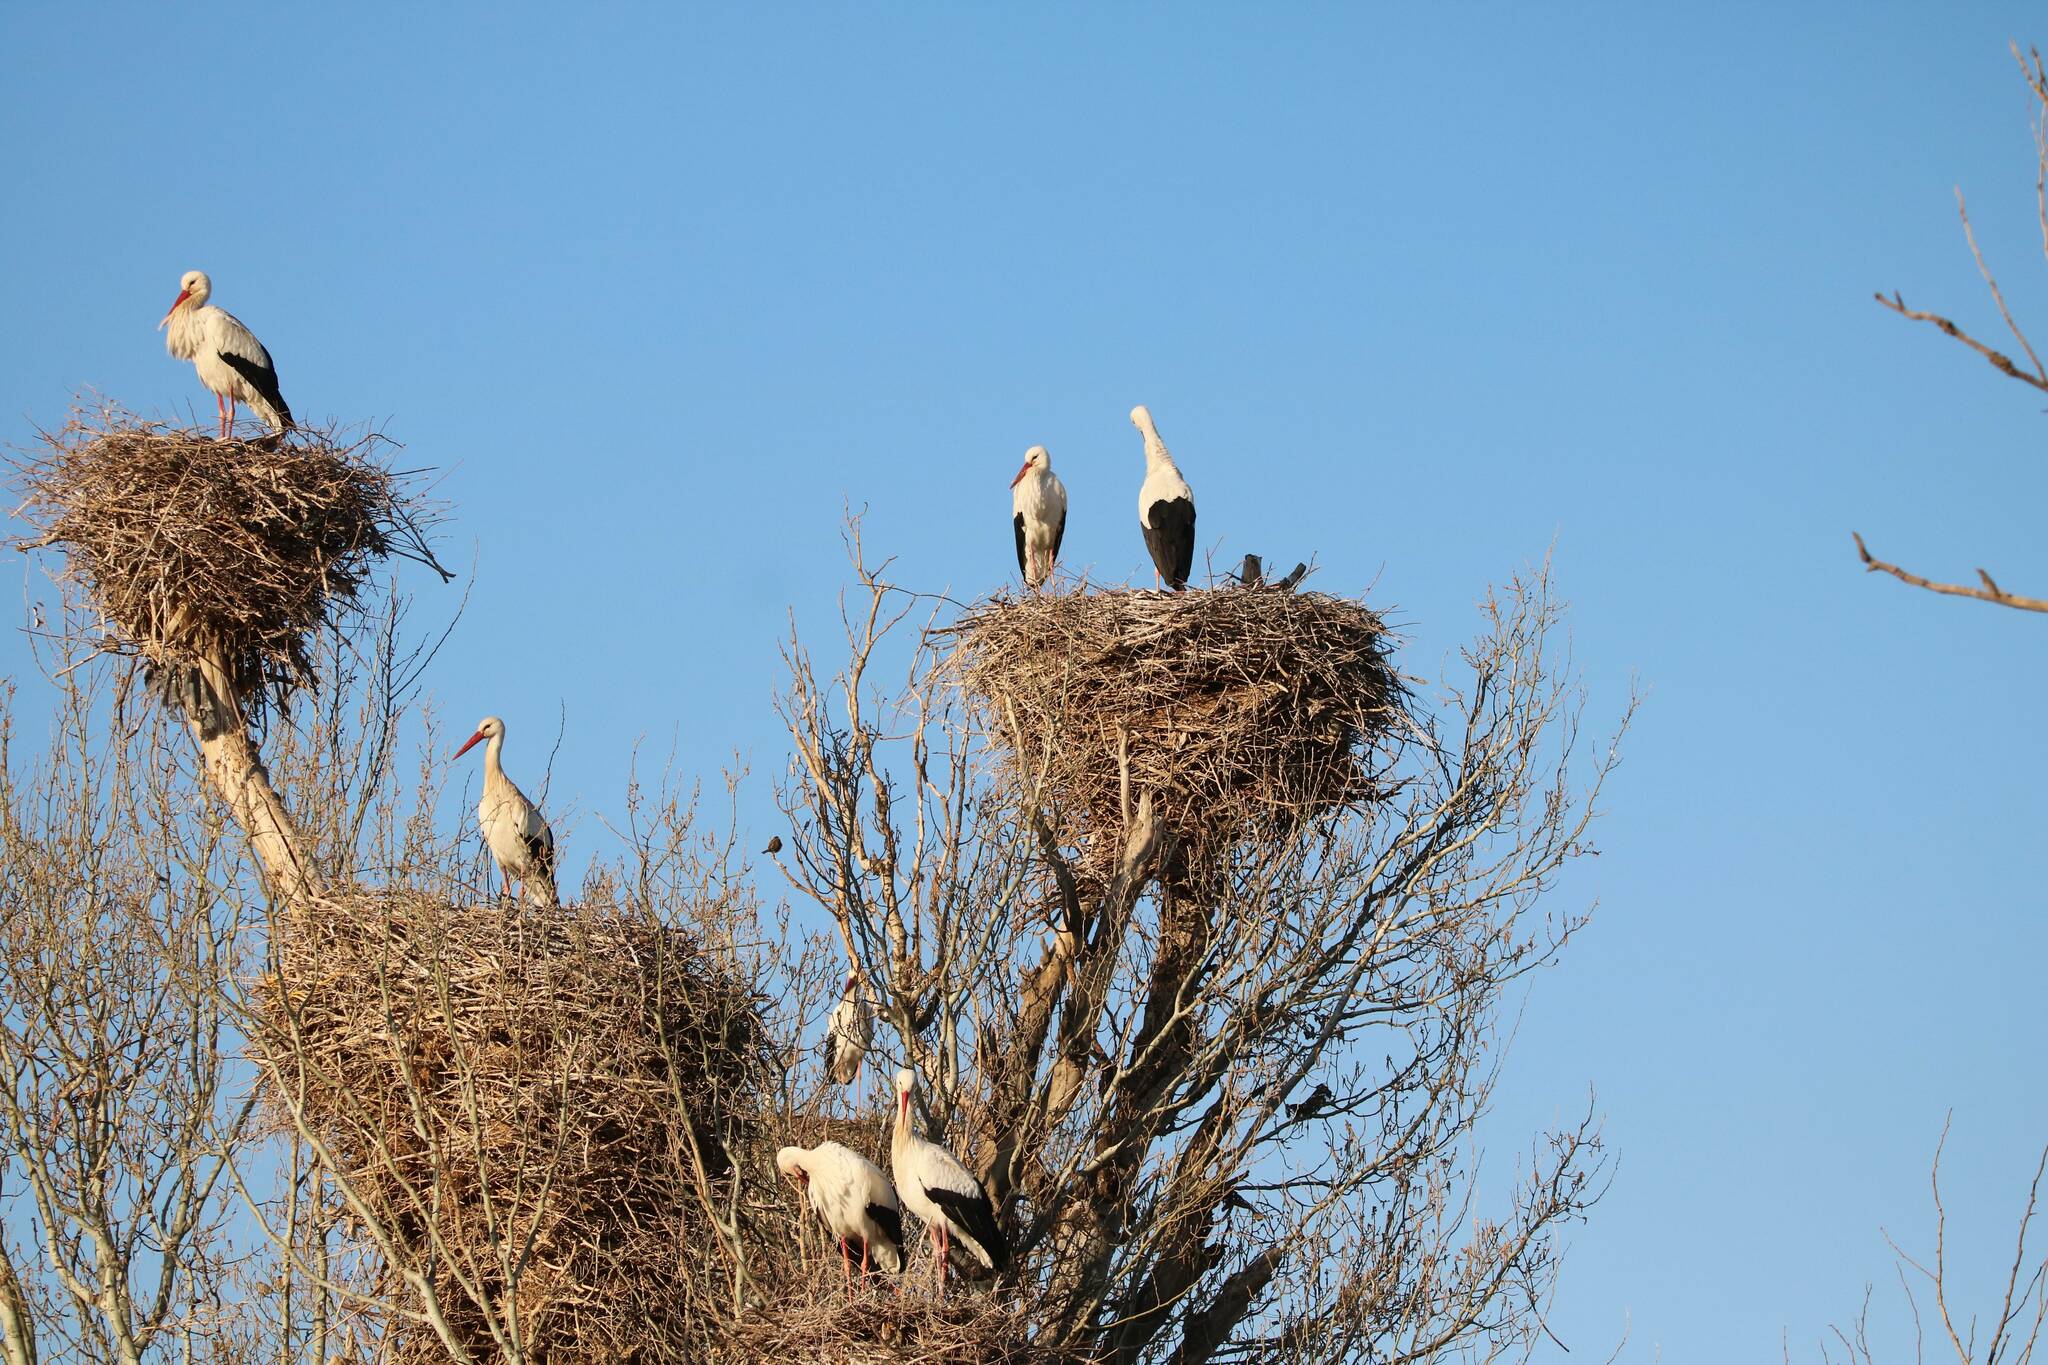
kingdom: Animalia
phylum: Chordata
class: Aves
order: Ciconiiformes
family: Ciconiidae
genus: Ciconia
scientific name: Ciconia ciconia
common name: White stork
